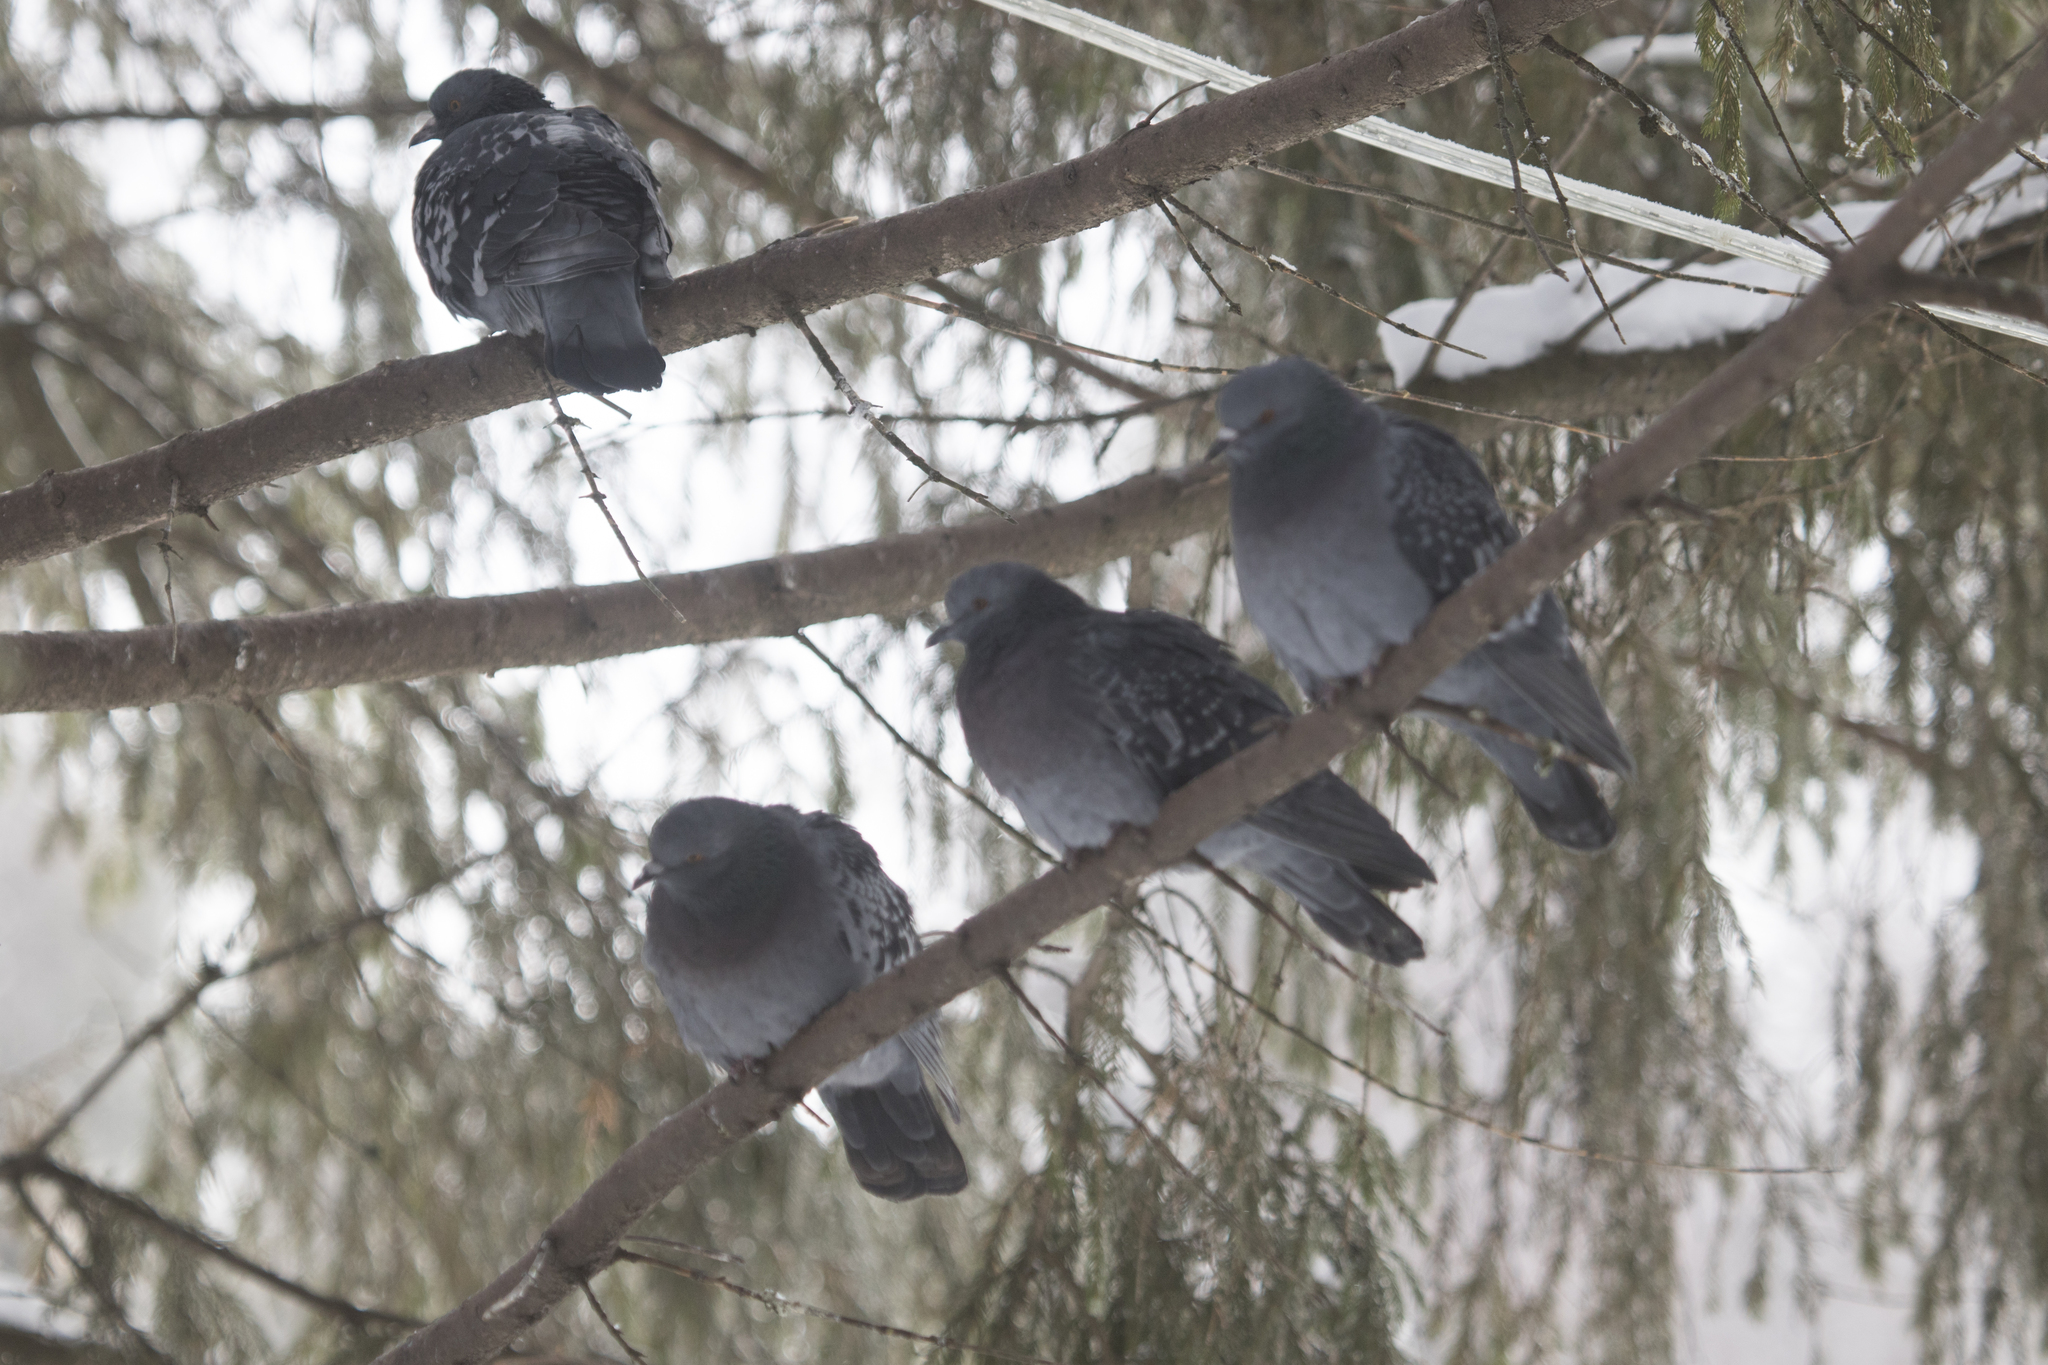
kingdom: Animalia
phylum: Chordata
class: Aves
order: Columbiformes
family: Columbidae
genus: Columba
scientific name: Columba livia
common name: Rock pigeon
